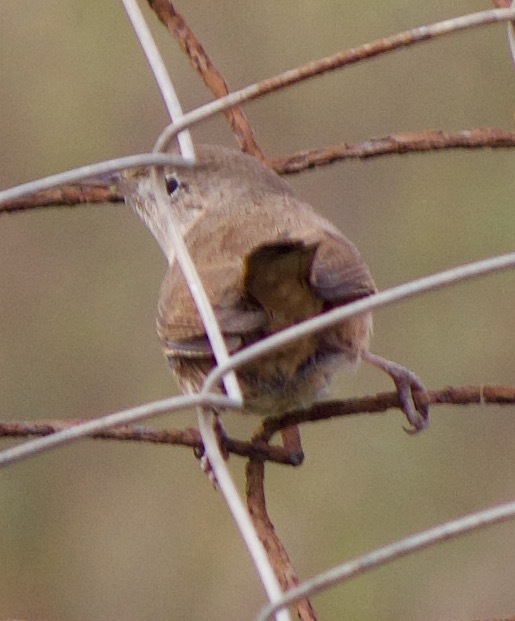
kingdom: Animalia
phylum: Chordata
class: Aves
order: Passeriformes
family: Troglodytidae
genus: Troglodytes
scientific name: Troglodytes aedon
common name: House wren
